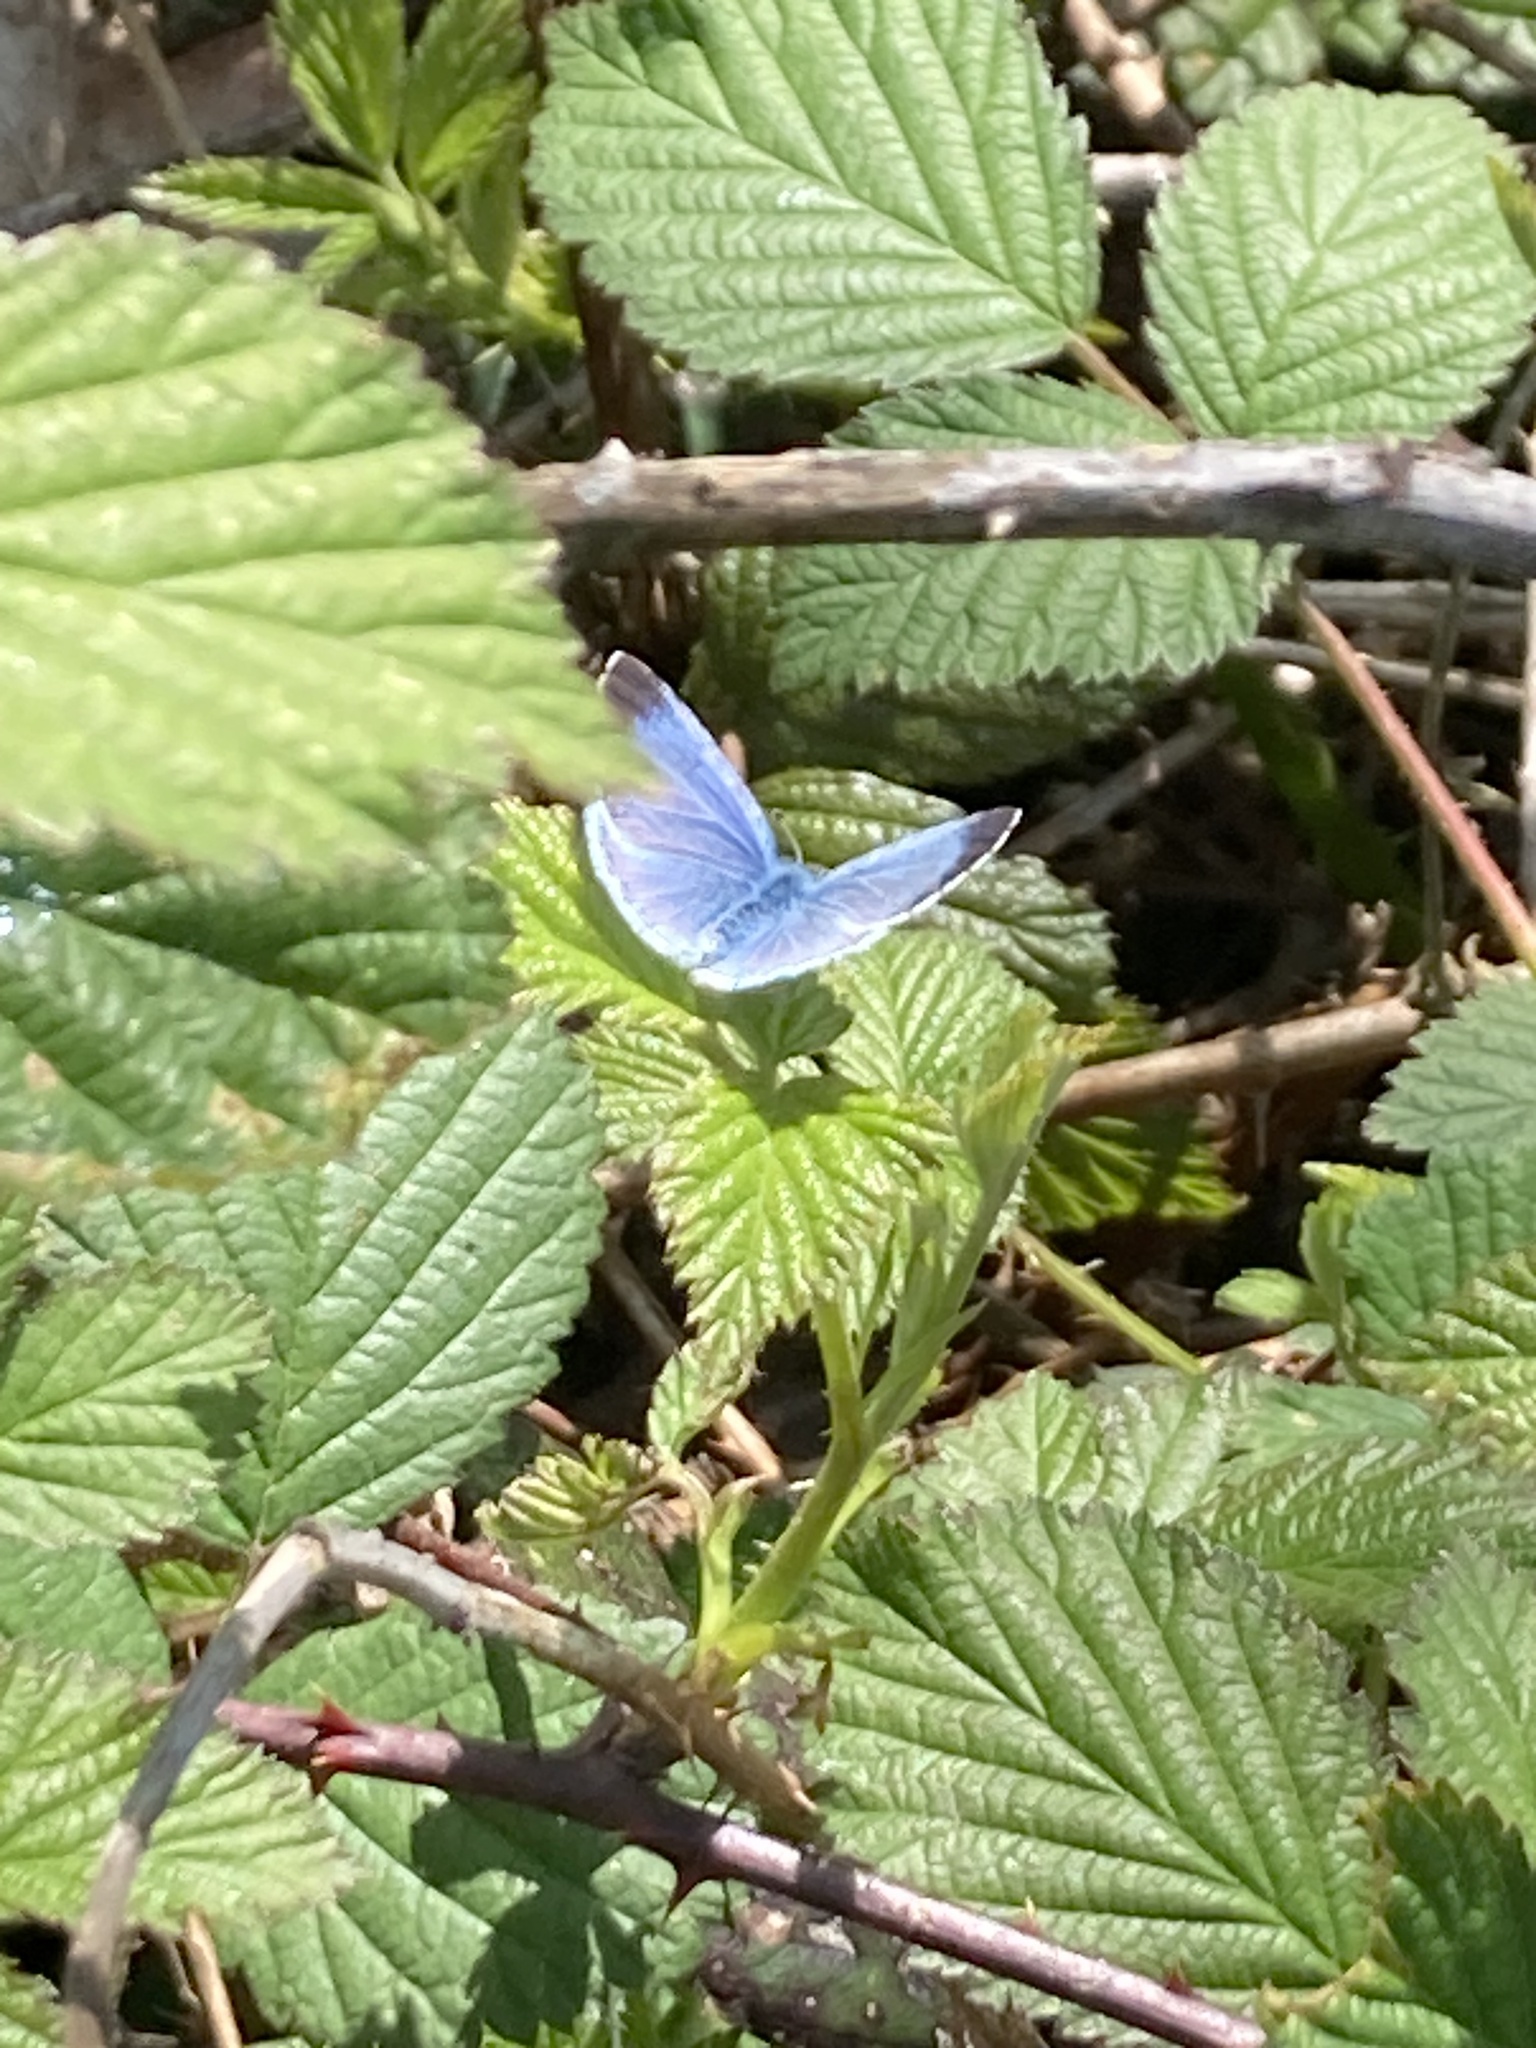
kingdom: Animalia
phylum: Arthropoda
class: Insecta
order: Lepidoptera
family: Lycaenidae
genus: Celastrina
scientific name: Celastrina argiolus
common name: Holly blue
